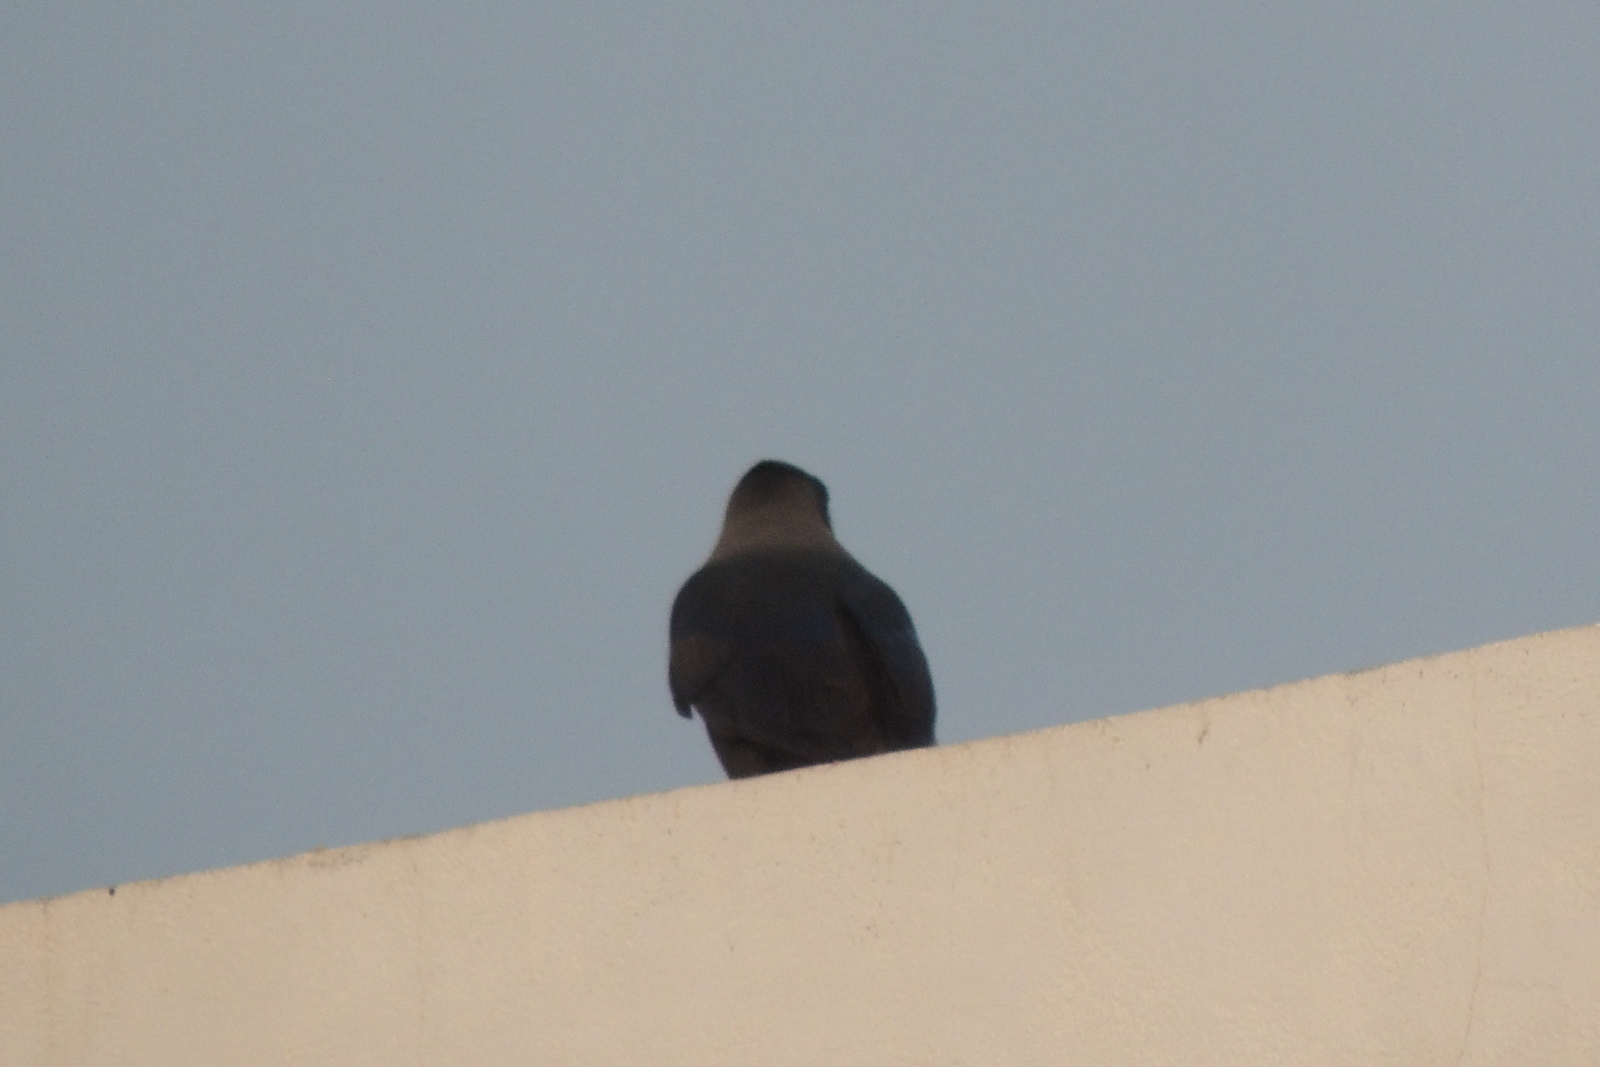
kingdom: Animalia
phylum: Chordata
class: Aves
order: Passeriformes
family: Corvidae
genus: Corvus
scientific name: Corvus splendens
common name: House crow
